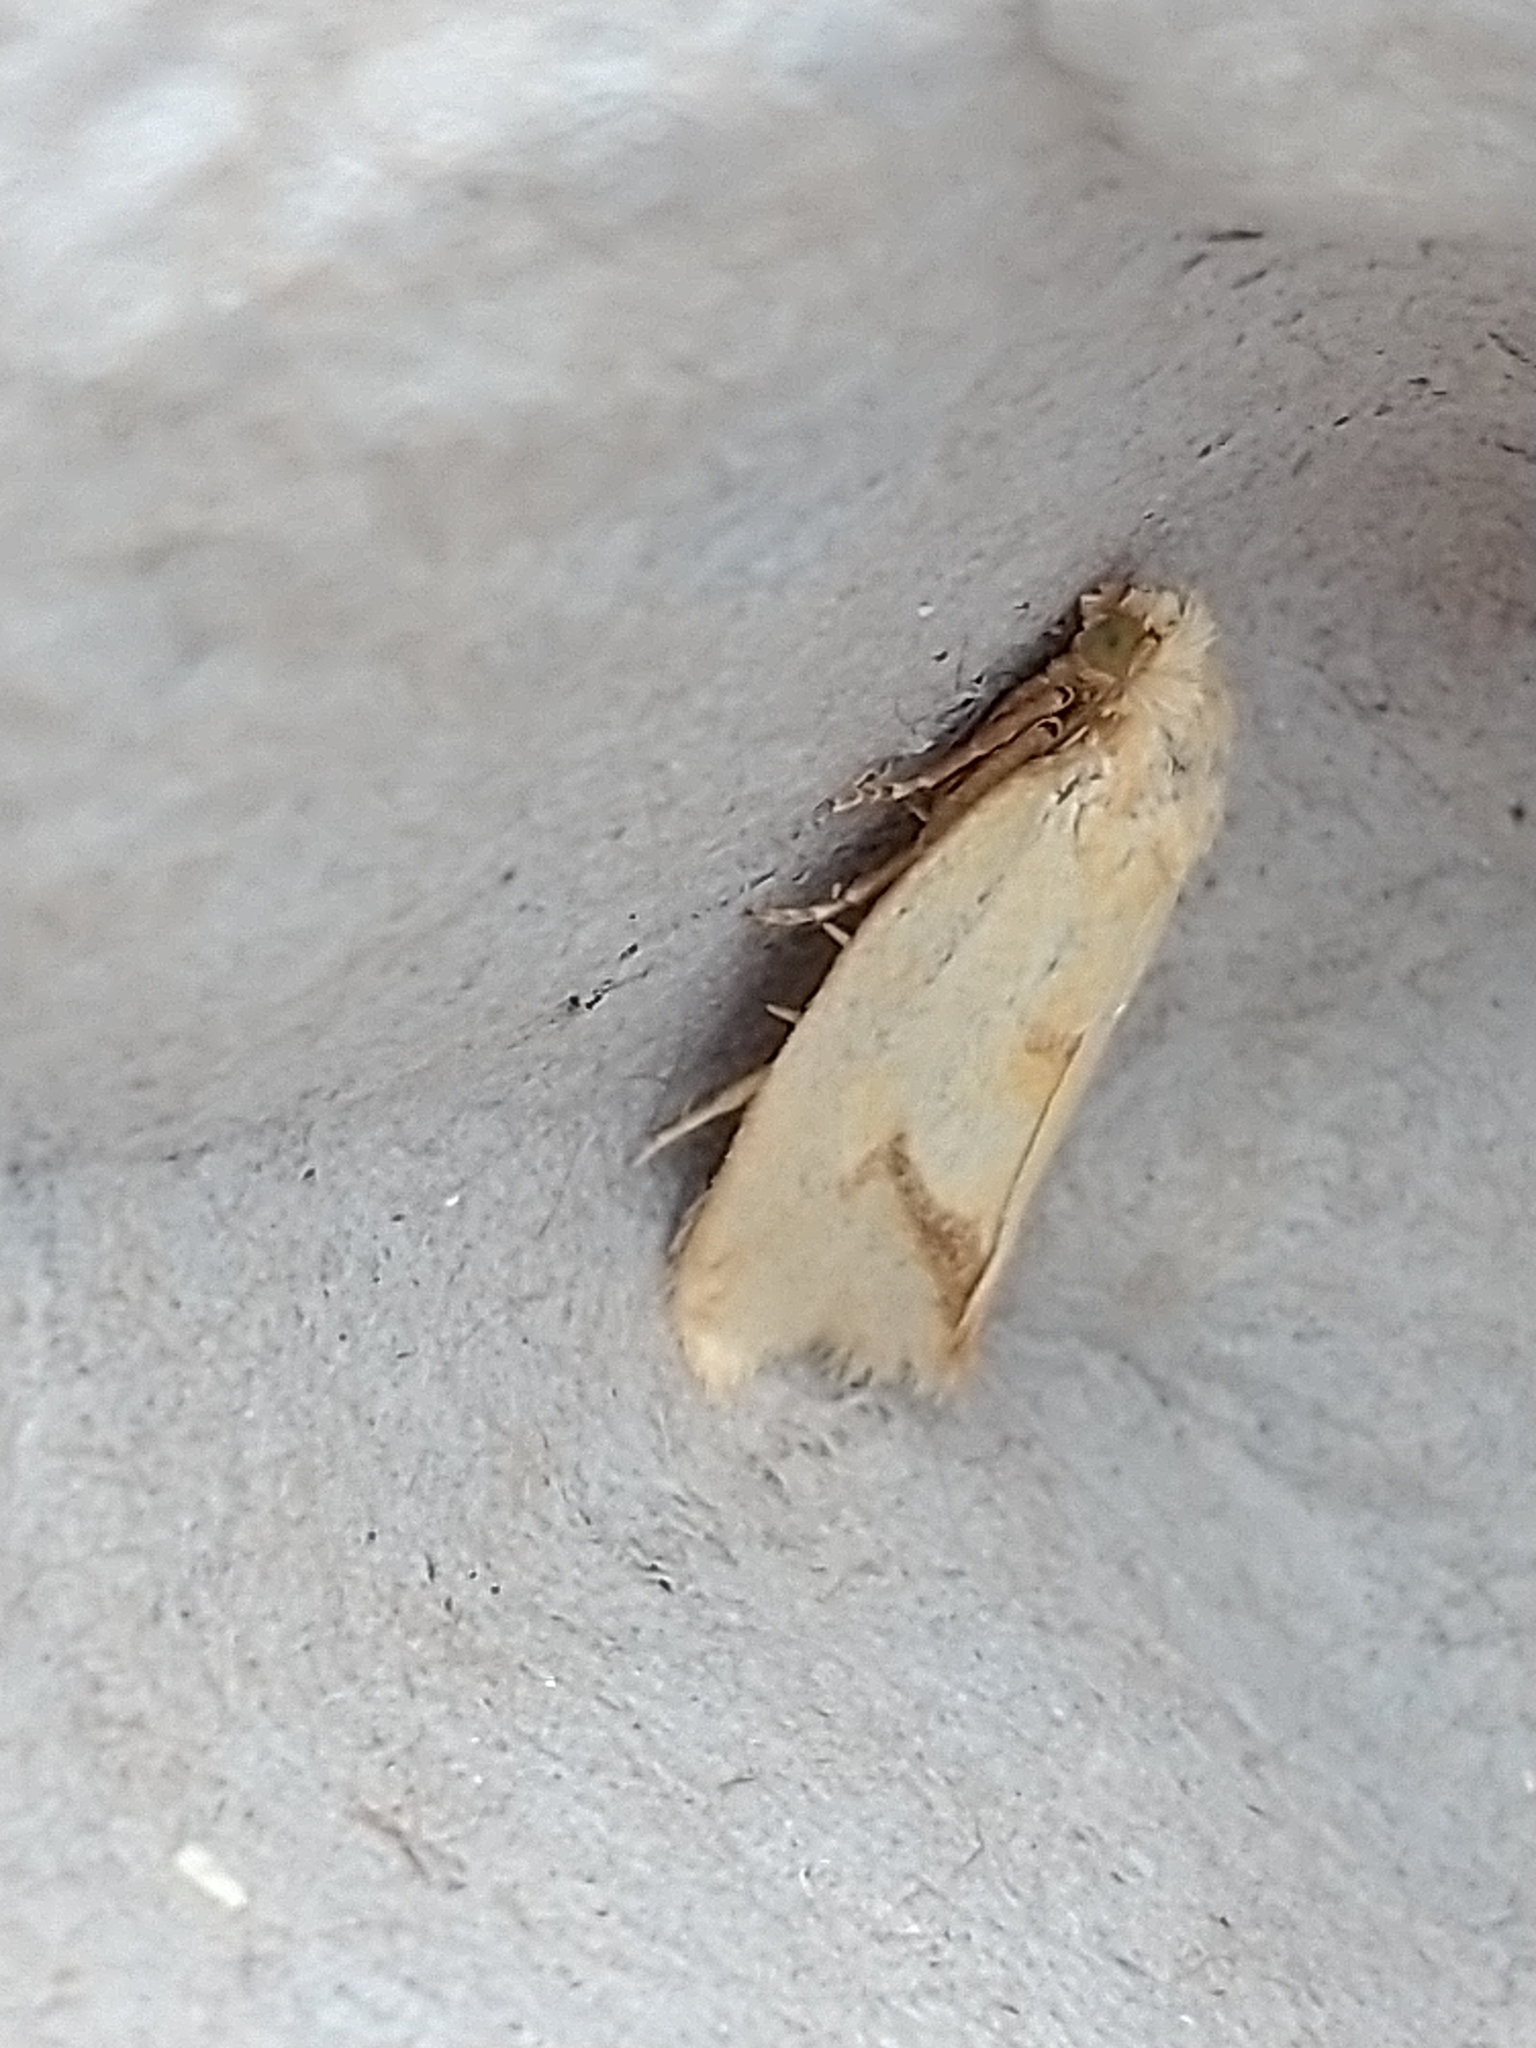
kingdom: Animalia
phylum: Arthropoda
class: Insecta
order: Lepidoptera
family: Tortricidae
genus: Agapeta
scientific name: Agapeta hamana
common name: Common yellow conch
